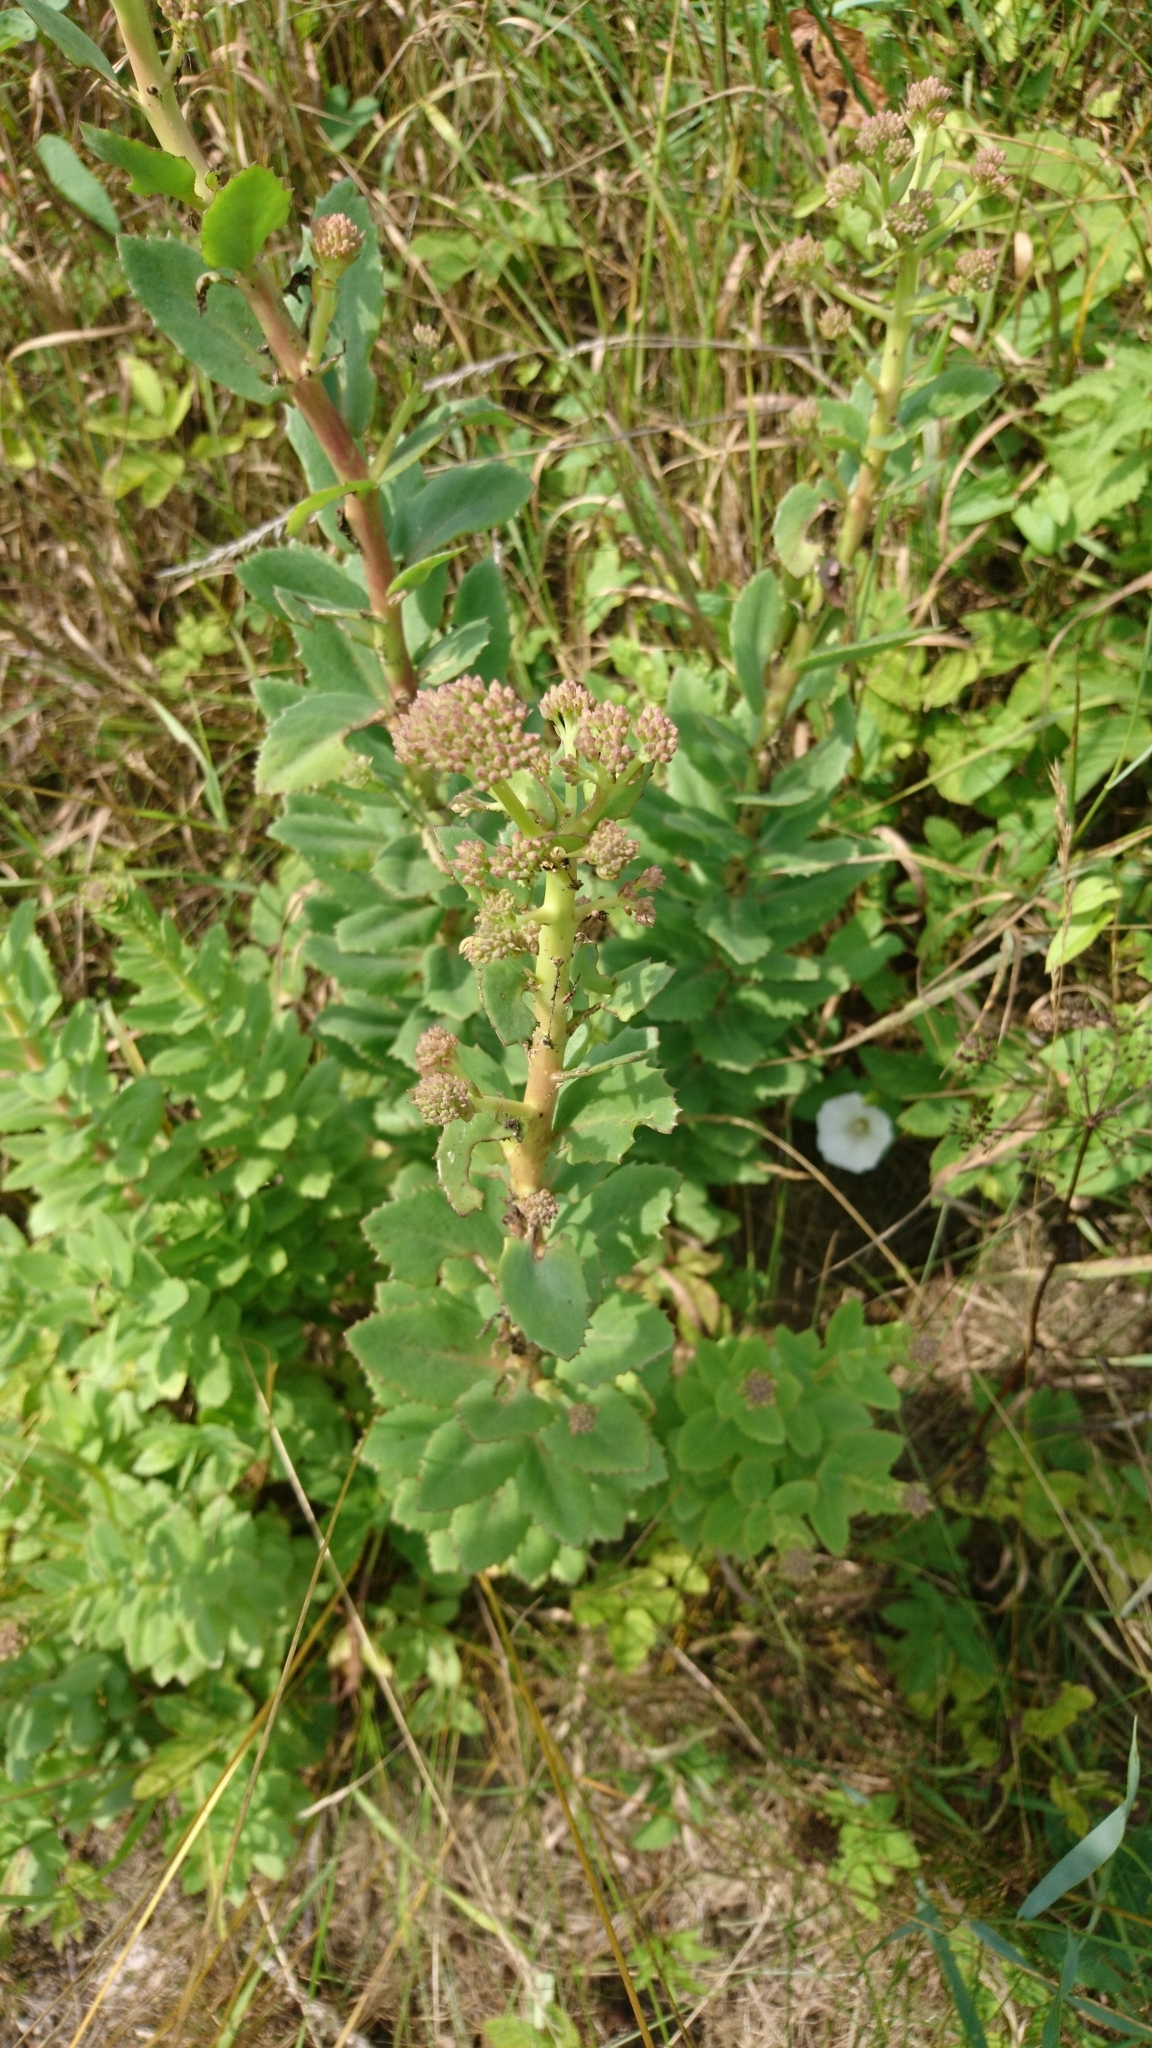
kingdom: Plantae
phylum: Tracheophyta
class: Magnoliopsida
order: Saxifragales
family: Crassulaceae
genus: Hylotelephium
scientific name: Hylotelephium telephium
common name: Live-forever
